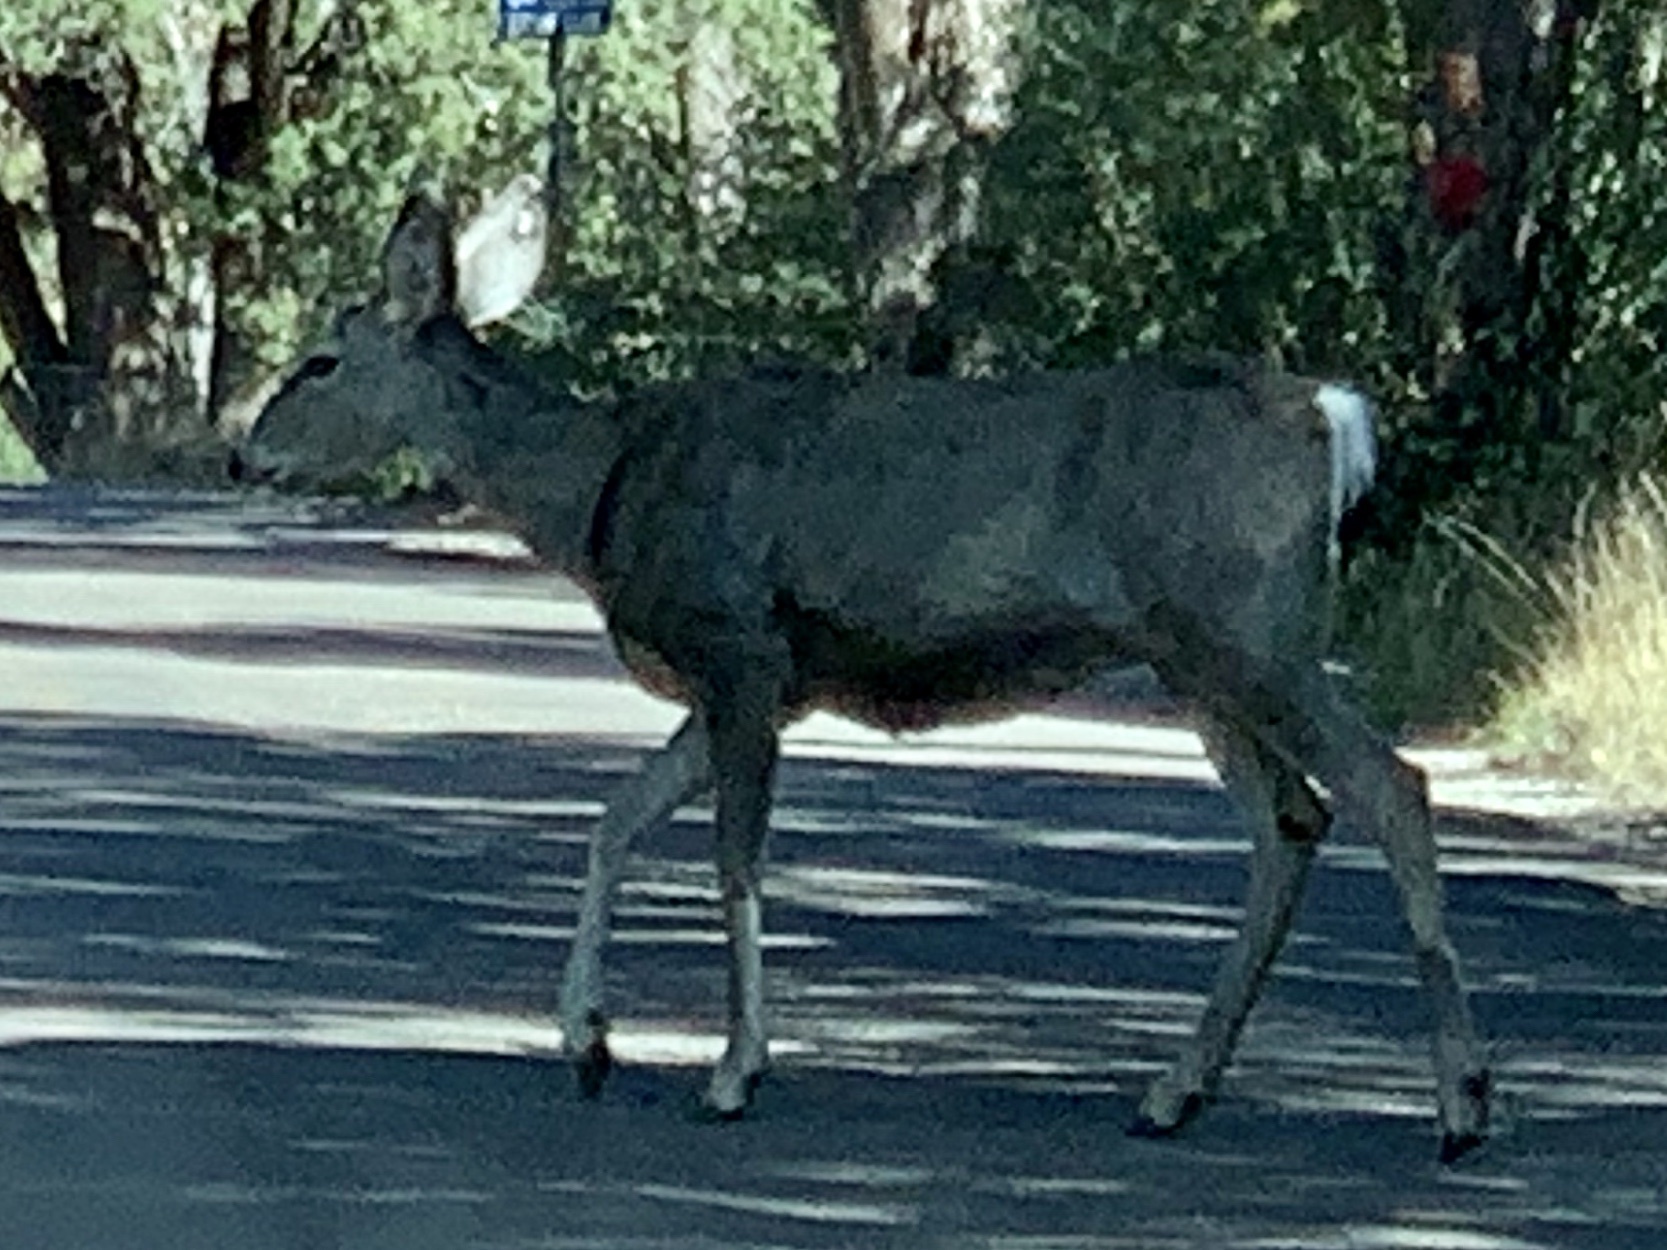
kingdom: Animalia
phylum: Chordata
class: Mammalia
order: Artiodactyla
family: Cervidae
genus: Odocoileus
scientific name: Odocoileus hemionus
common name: Mule deer
